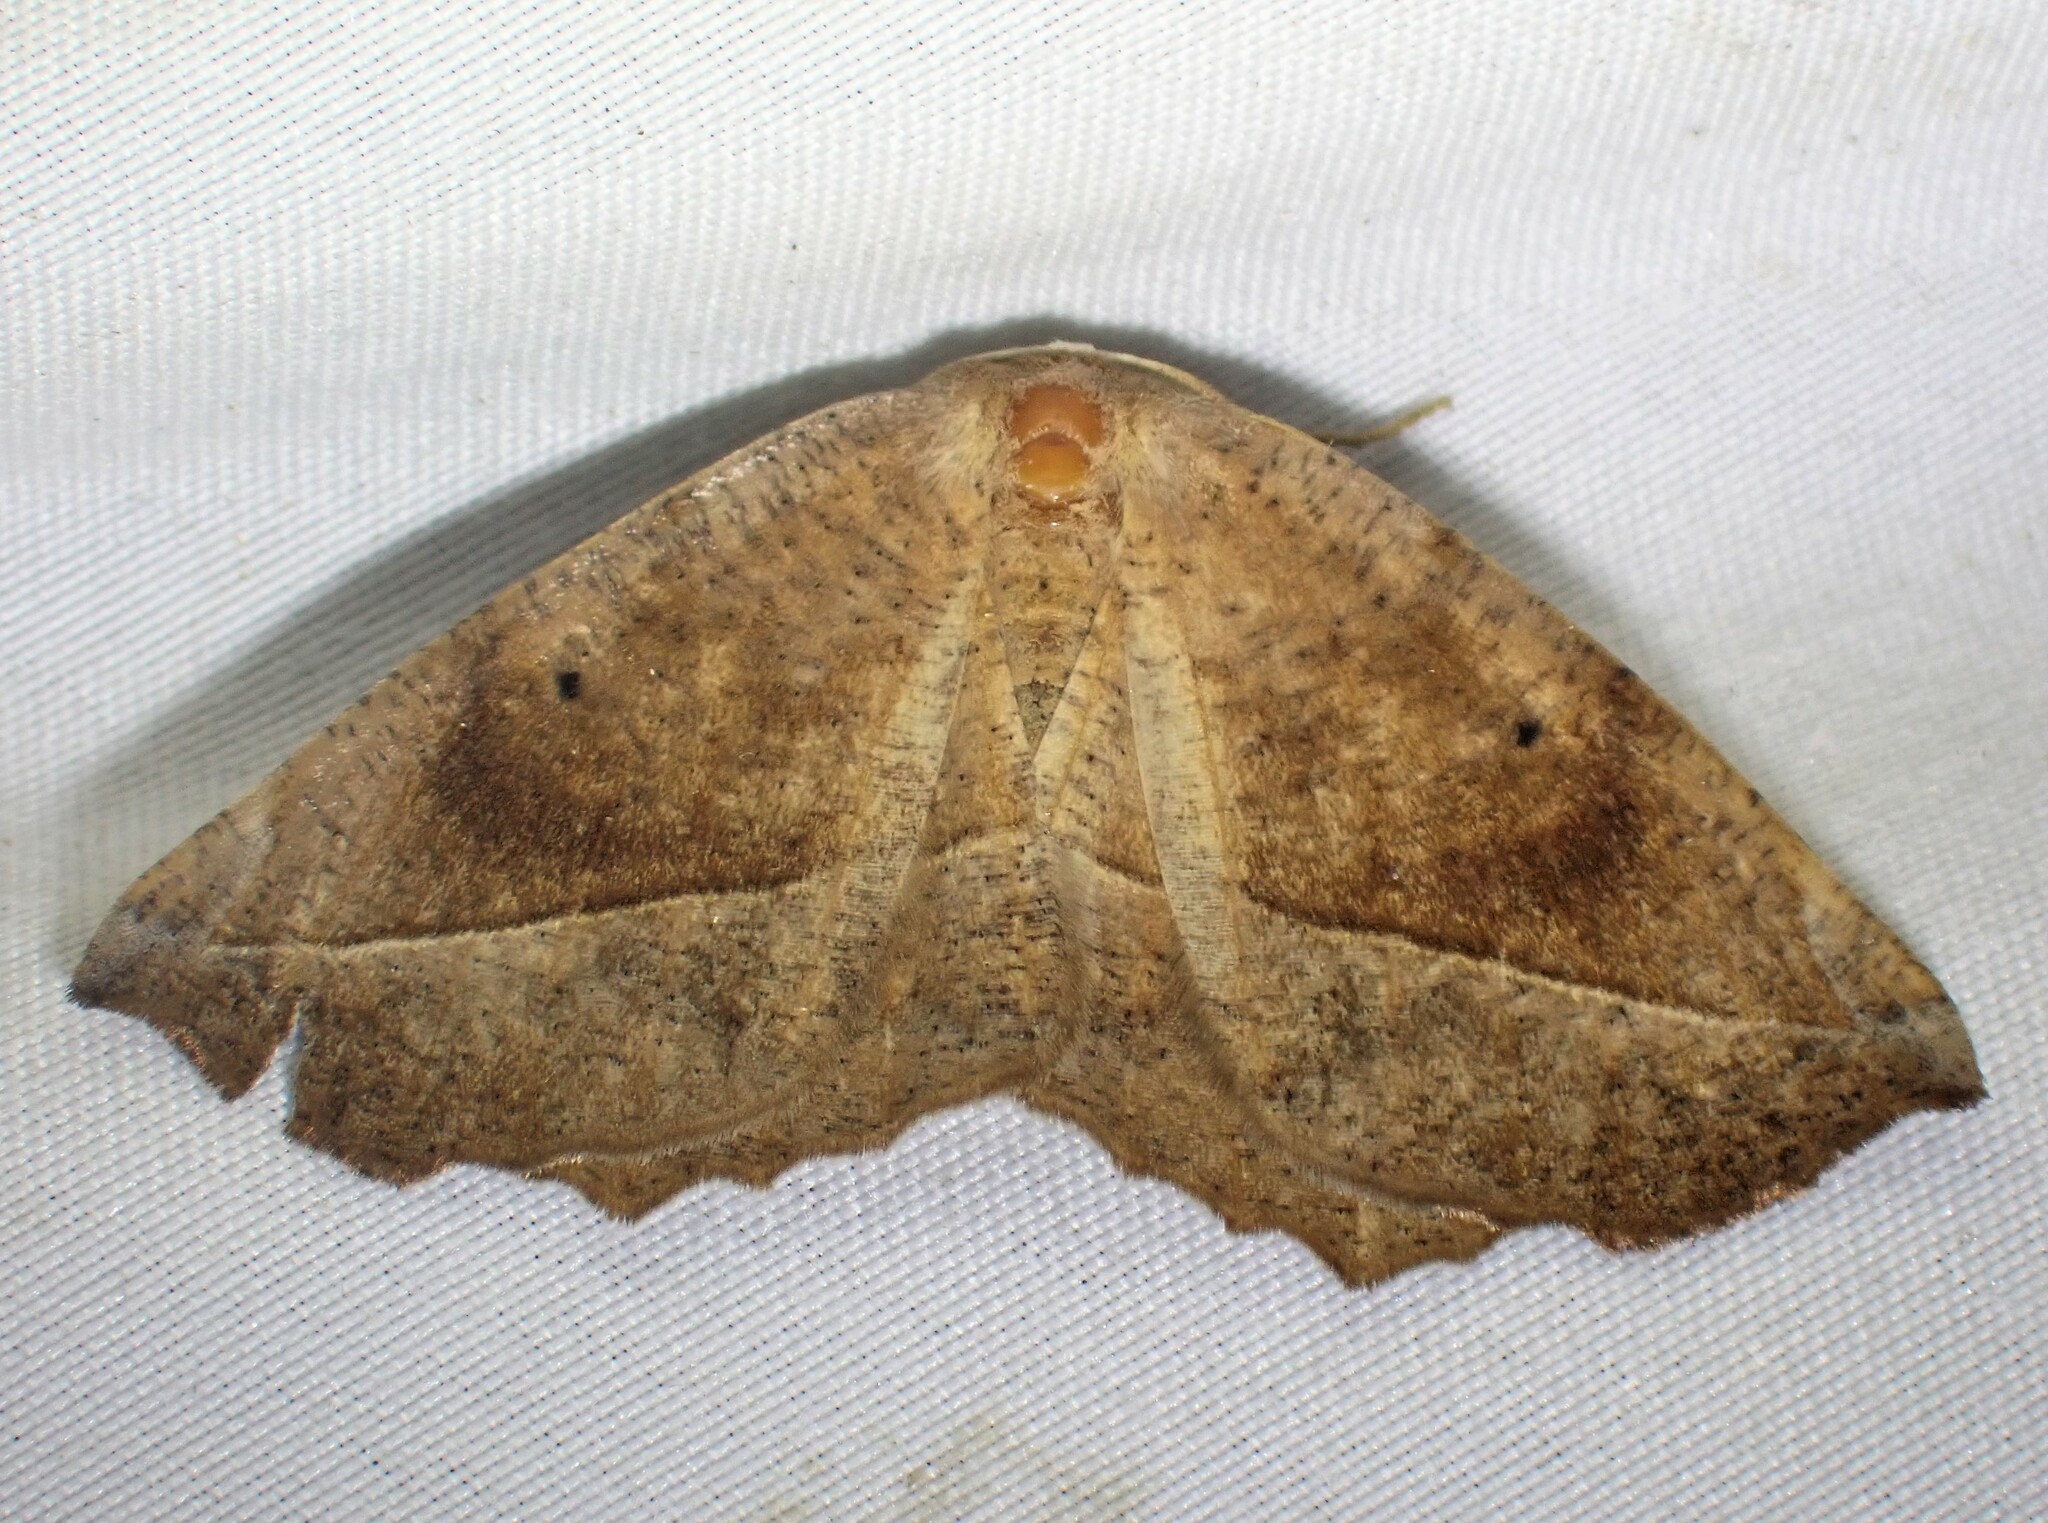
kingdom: Animalia
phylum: Arthropoda
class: Insecta
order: Lepidoptera
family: Geometridae
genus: Eutrapela
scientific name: Eutrapela clemataria
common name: Curved-toothed geometer
